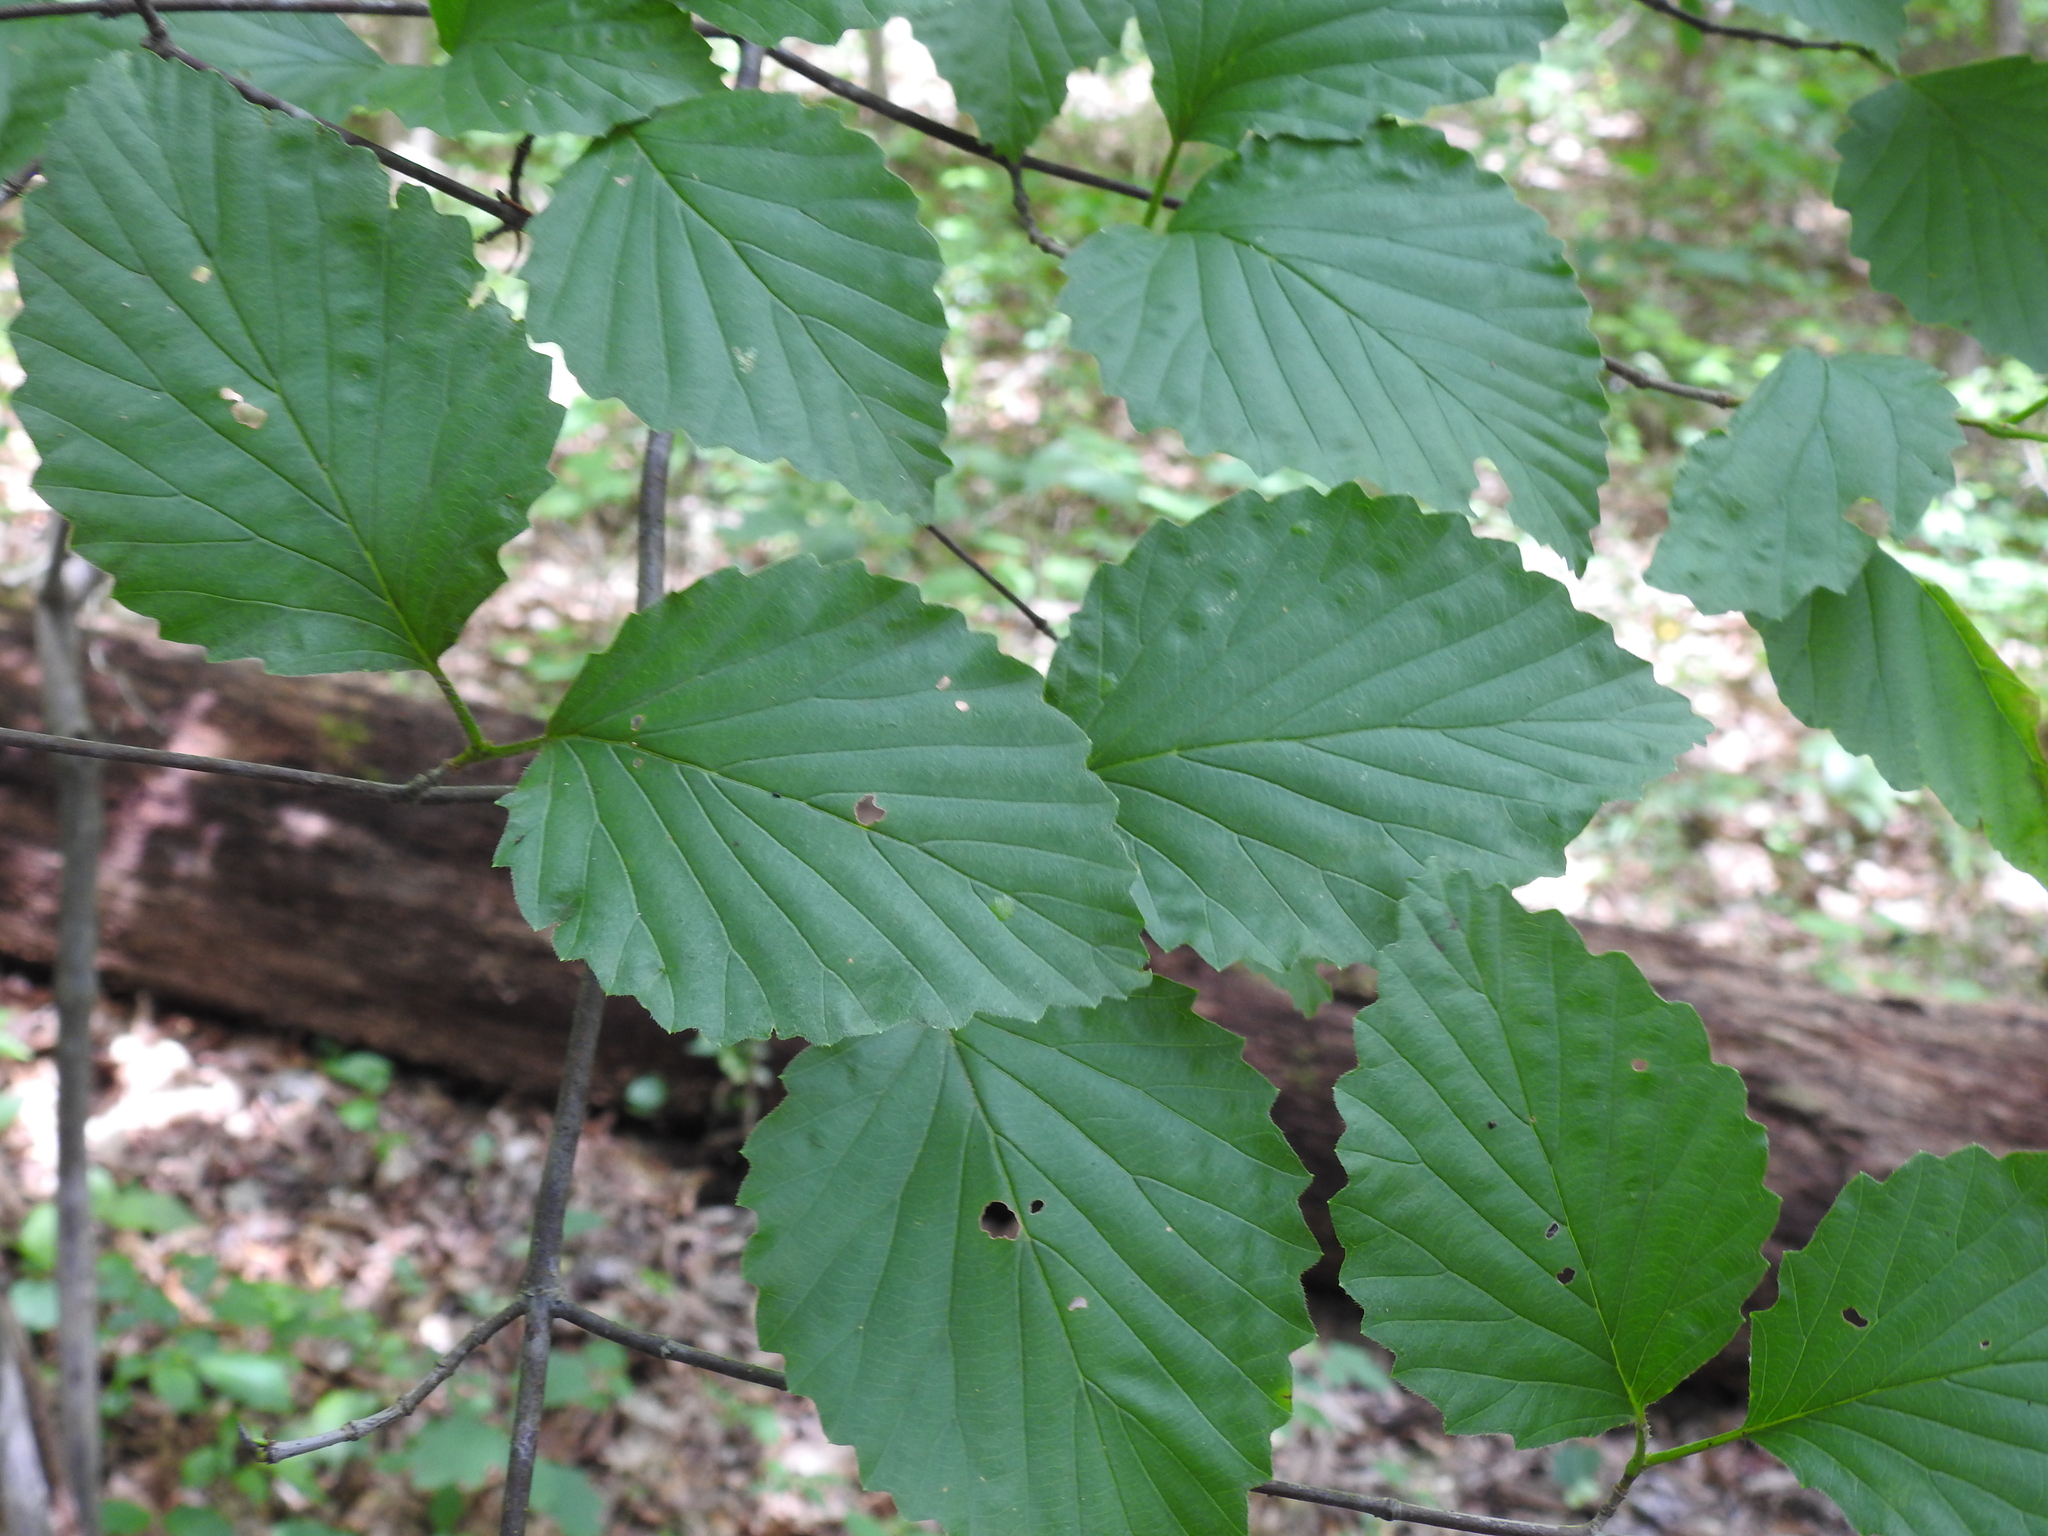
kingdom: Plantae
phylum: Tracheophyta
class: Magnoliopsida
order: Dipsacales
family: Viburnaceae
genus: Viburnum
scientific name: Viburnum dentatum
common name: Arrow-wood
